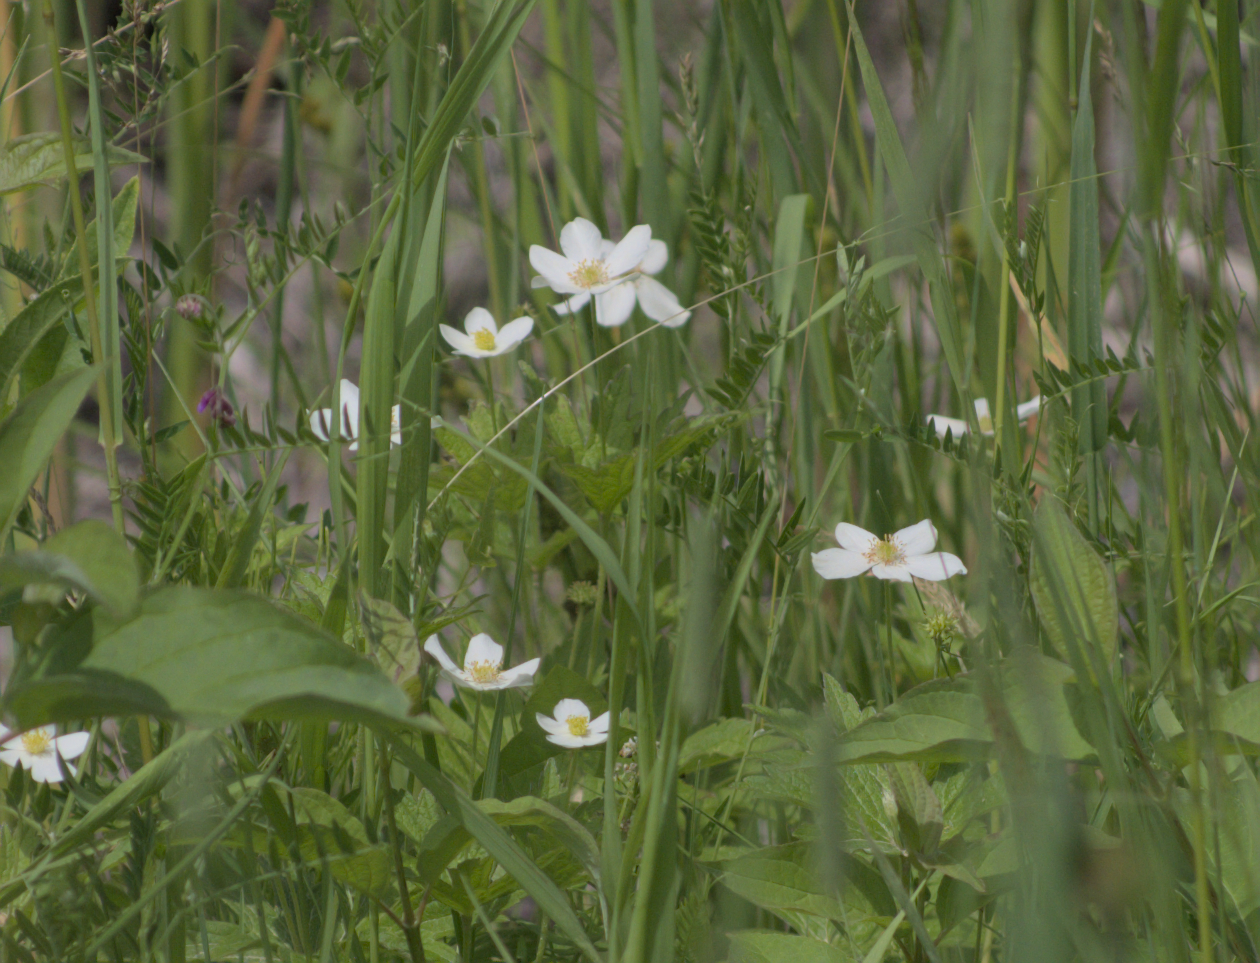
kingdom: Plantae
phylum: Tracheophyta
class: Magnoliopsida
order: Ranunculales
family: Ranunculaceae
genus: Anemonastrum
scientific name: Anemonastrum canadense
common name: Canada anemone
